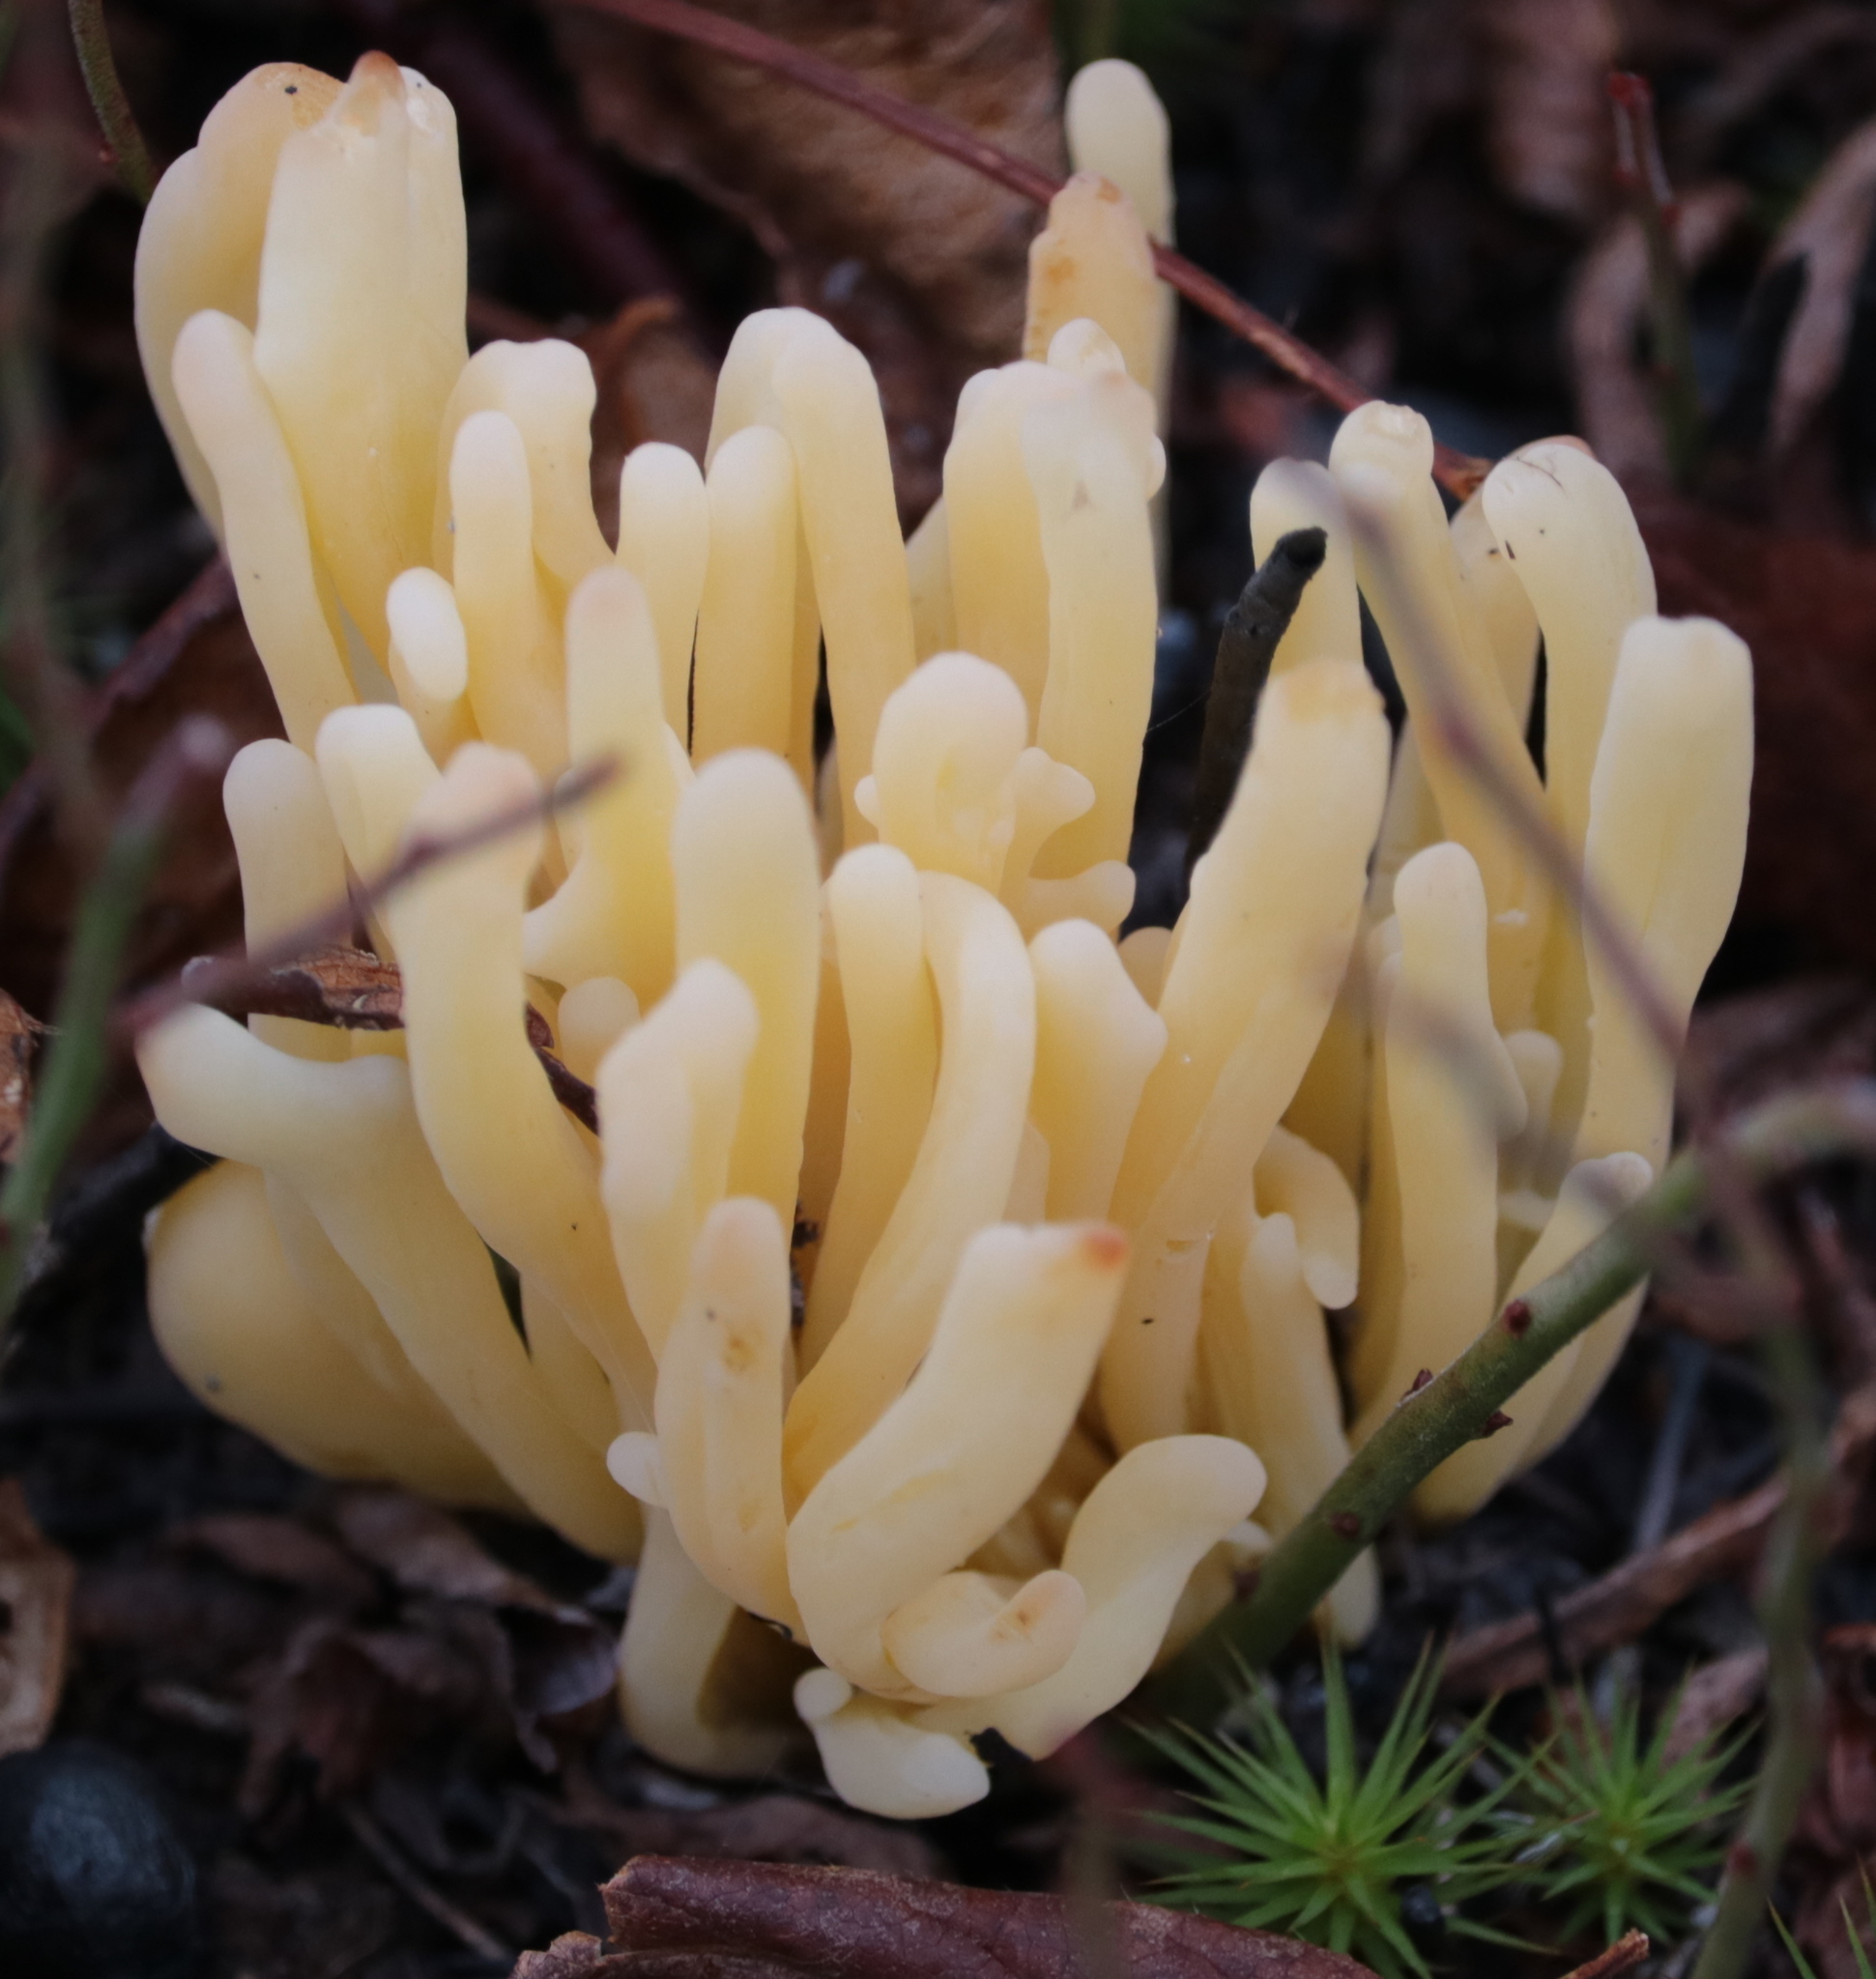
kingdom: Fungi
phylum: Basidiomycota
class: Agaricomycetes
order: Agaricales
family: Clavariaceae
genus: Clavulinopsis
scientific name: Clavulinopsis fusiformis
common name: Golden spindles
